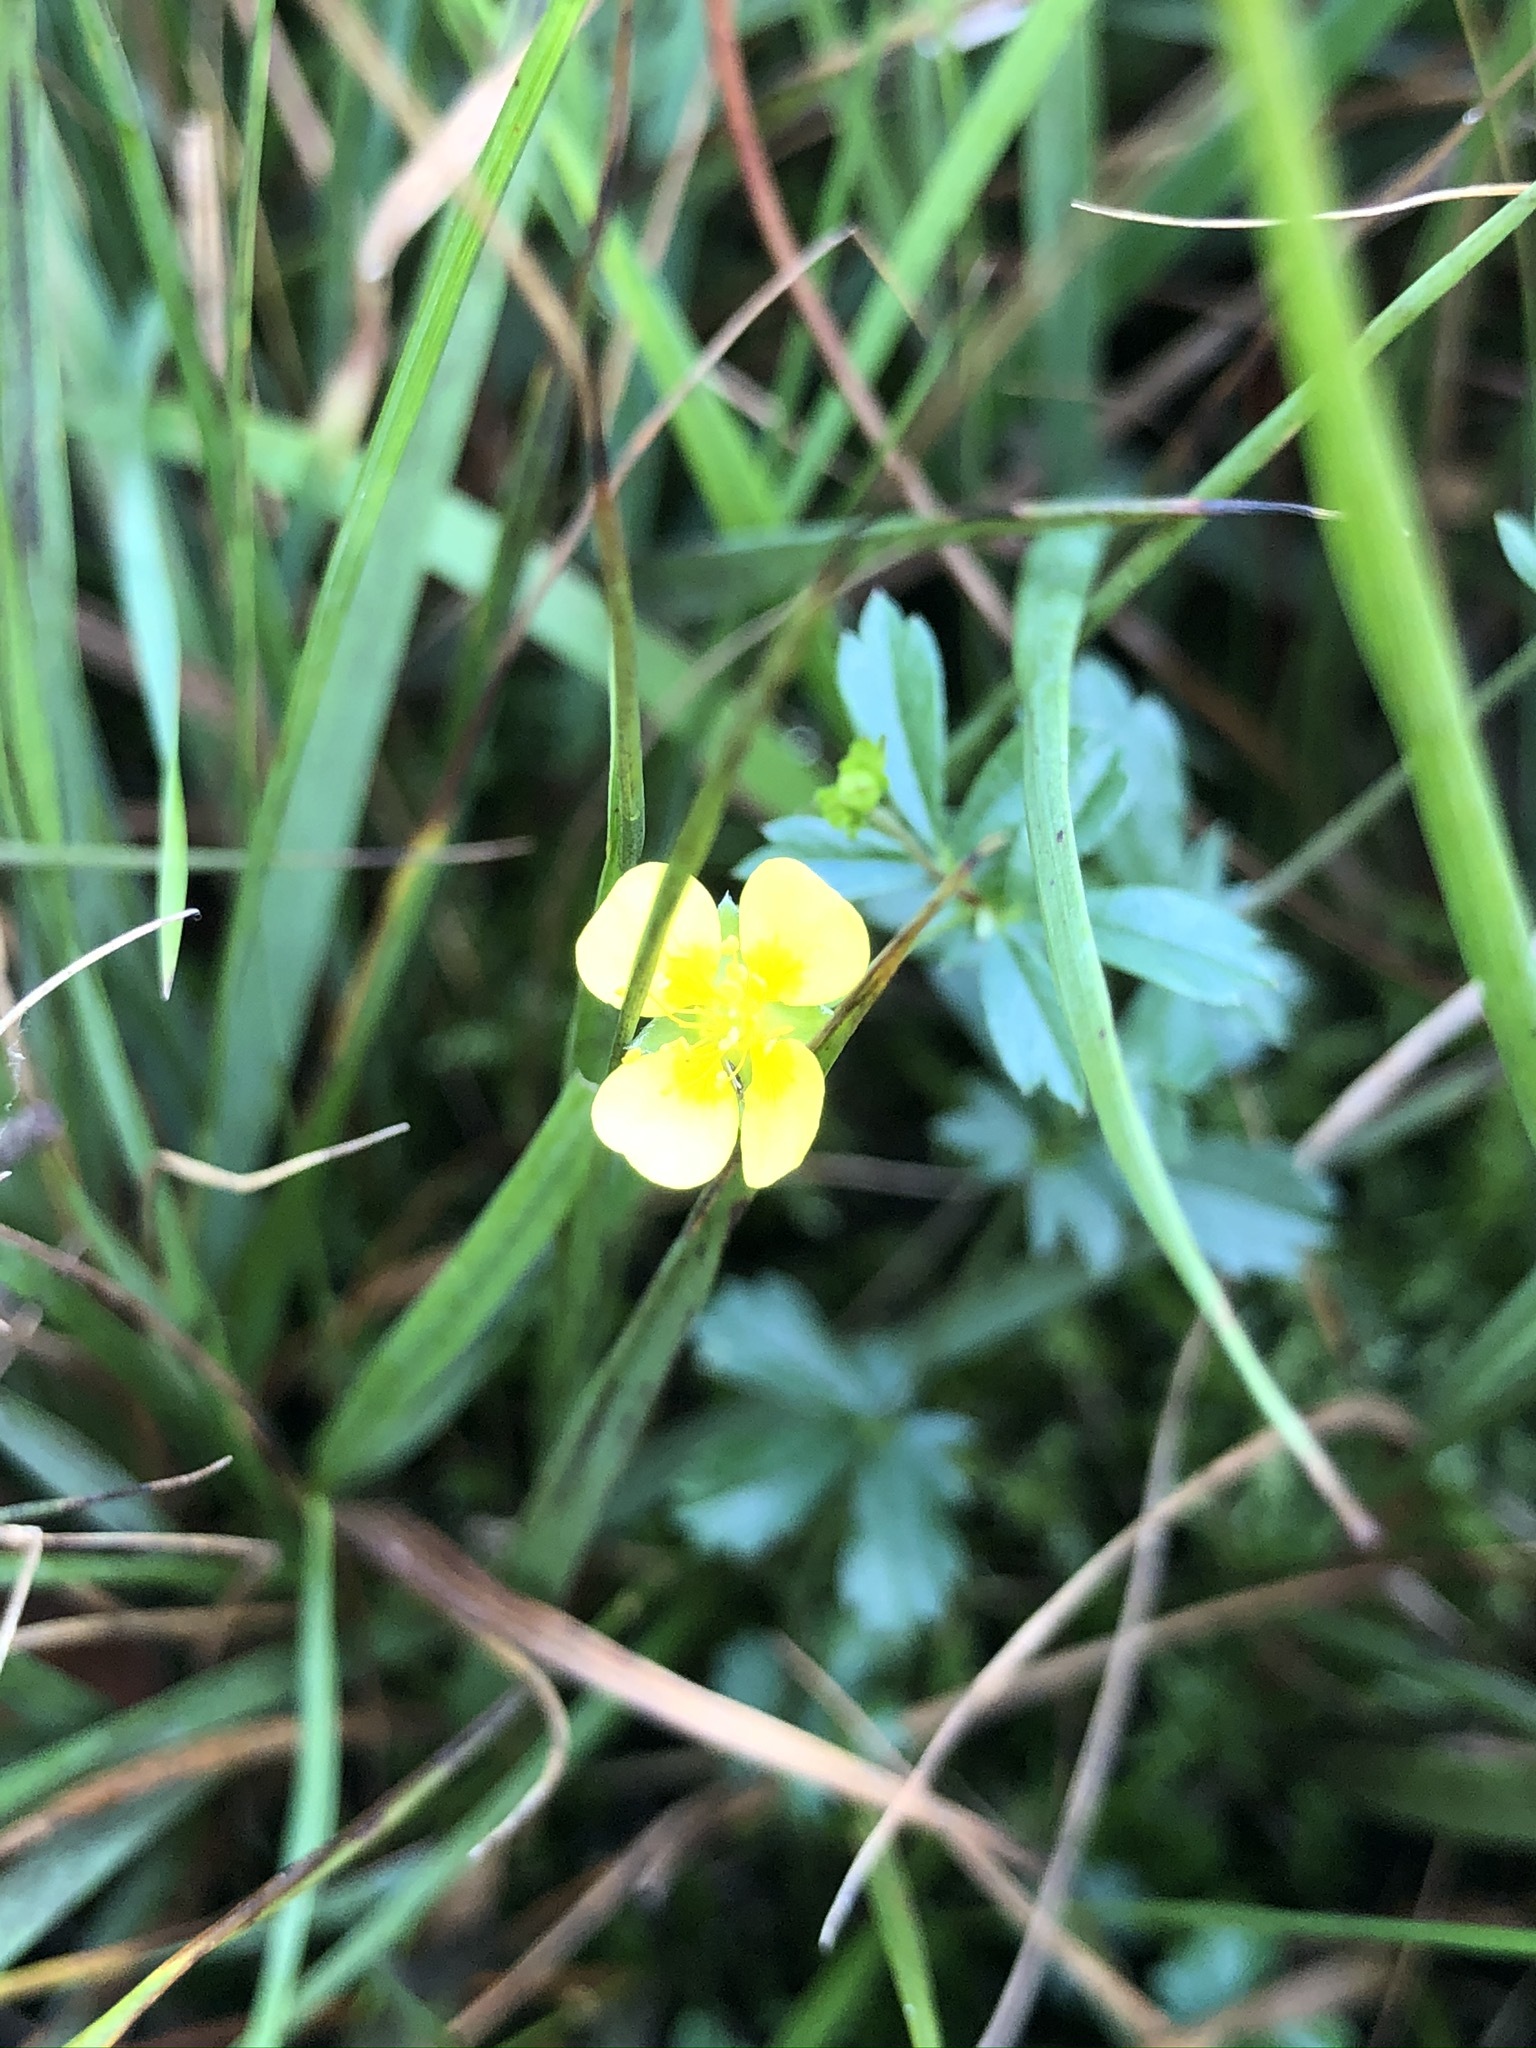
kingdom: Plantae
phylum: Tracheophyta
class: Magnoliopsida
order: Rosales
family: Rosaceae
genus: Potentilla
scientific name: Potentilla erecta
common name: Tormentil
